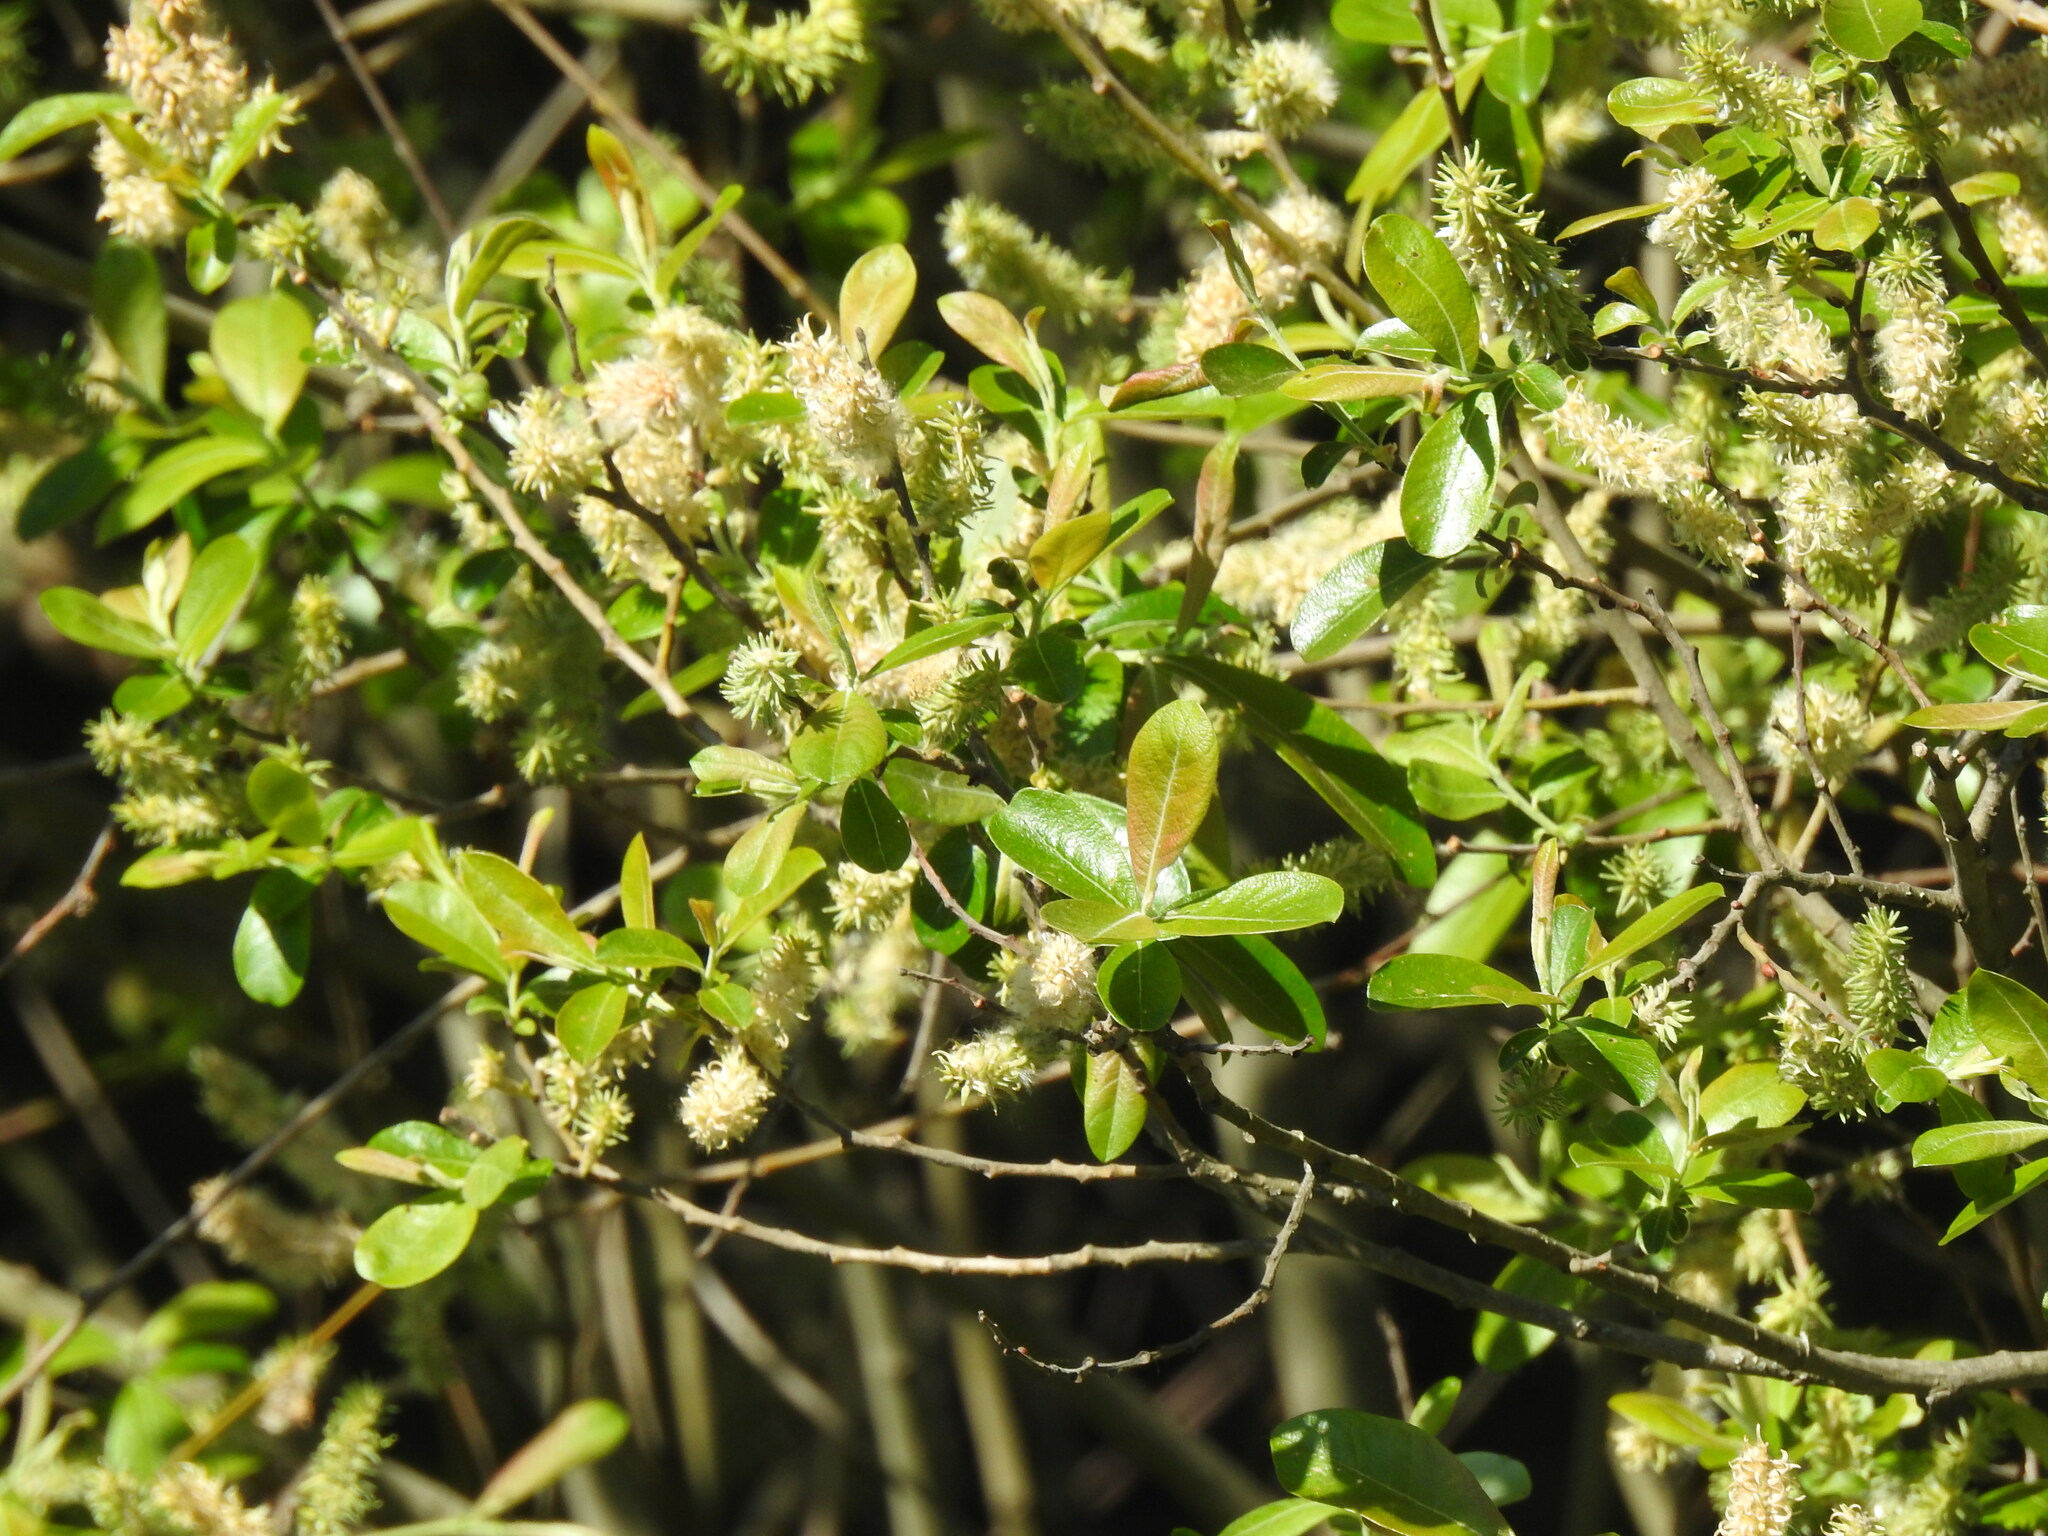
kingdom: Plantae
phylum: Tracheophyta
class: Magnoliopsida
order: Malpighiales
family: Salicaceae
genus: Salix
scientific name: Salix atrocinerea
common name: Rusty willow
